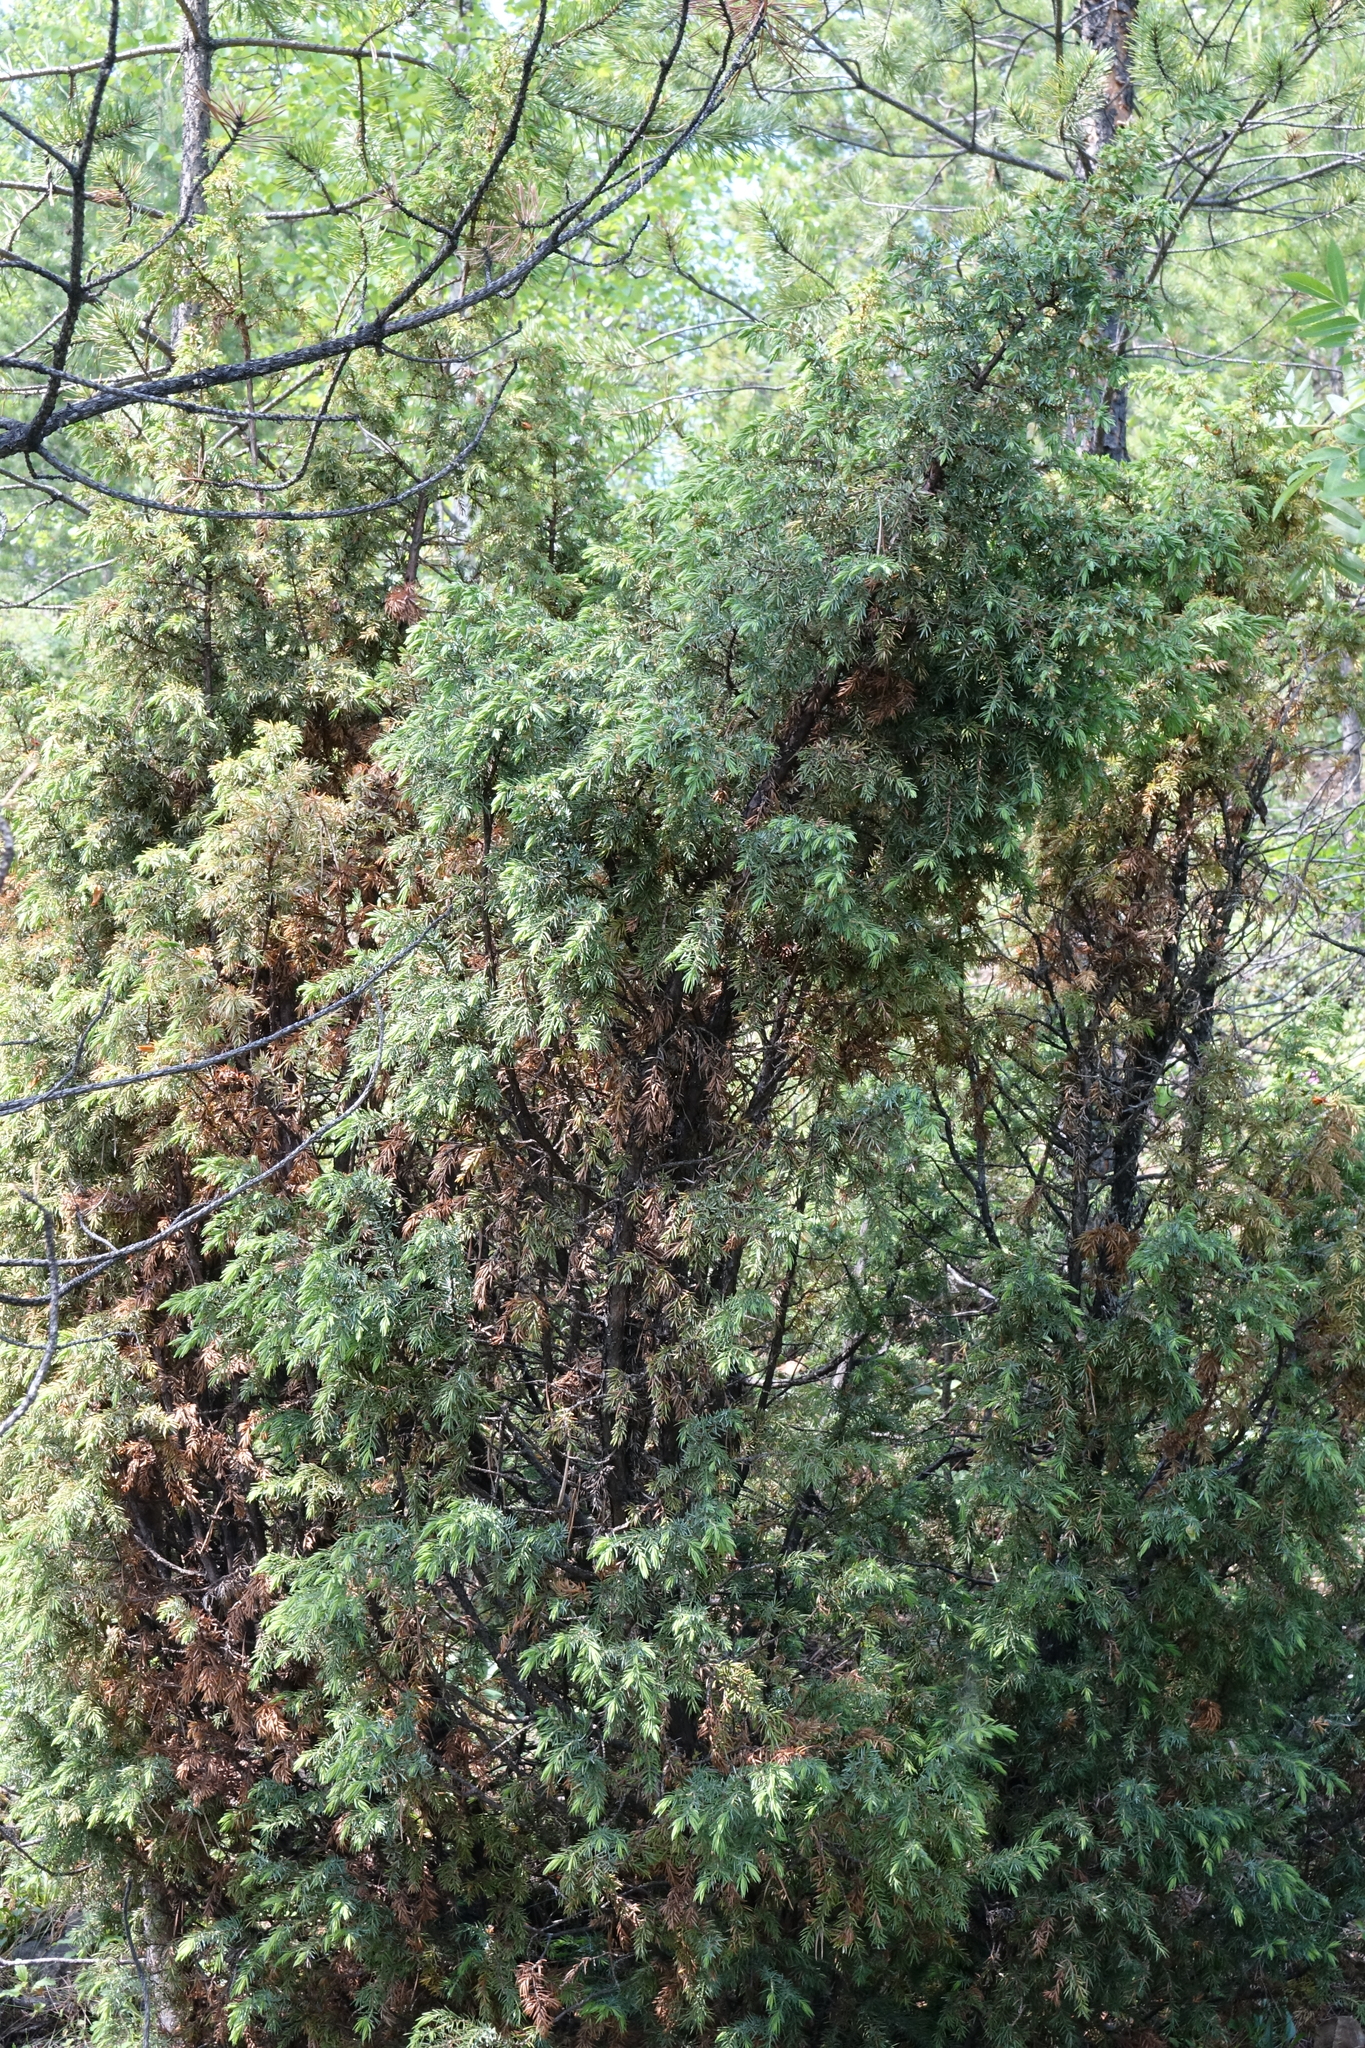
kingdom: Plantae
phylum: Tracheophyta
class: Pinopsida
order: Pinales
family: Cupressaceae
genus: Juniperus
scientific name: Juniperus communis
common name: Common juniper
